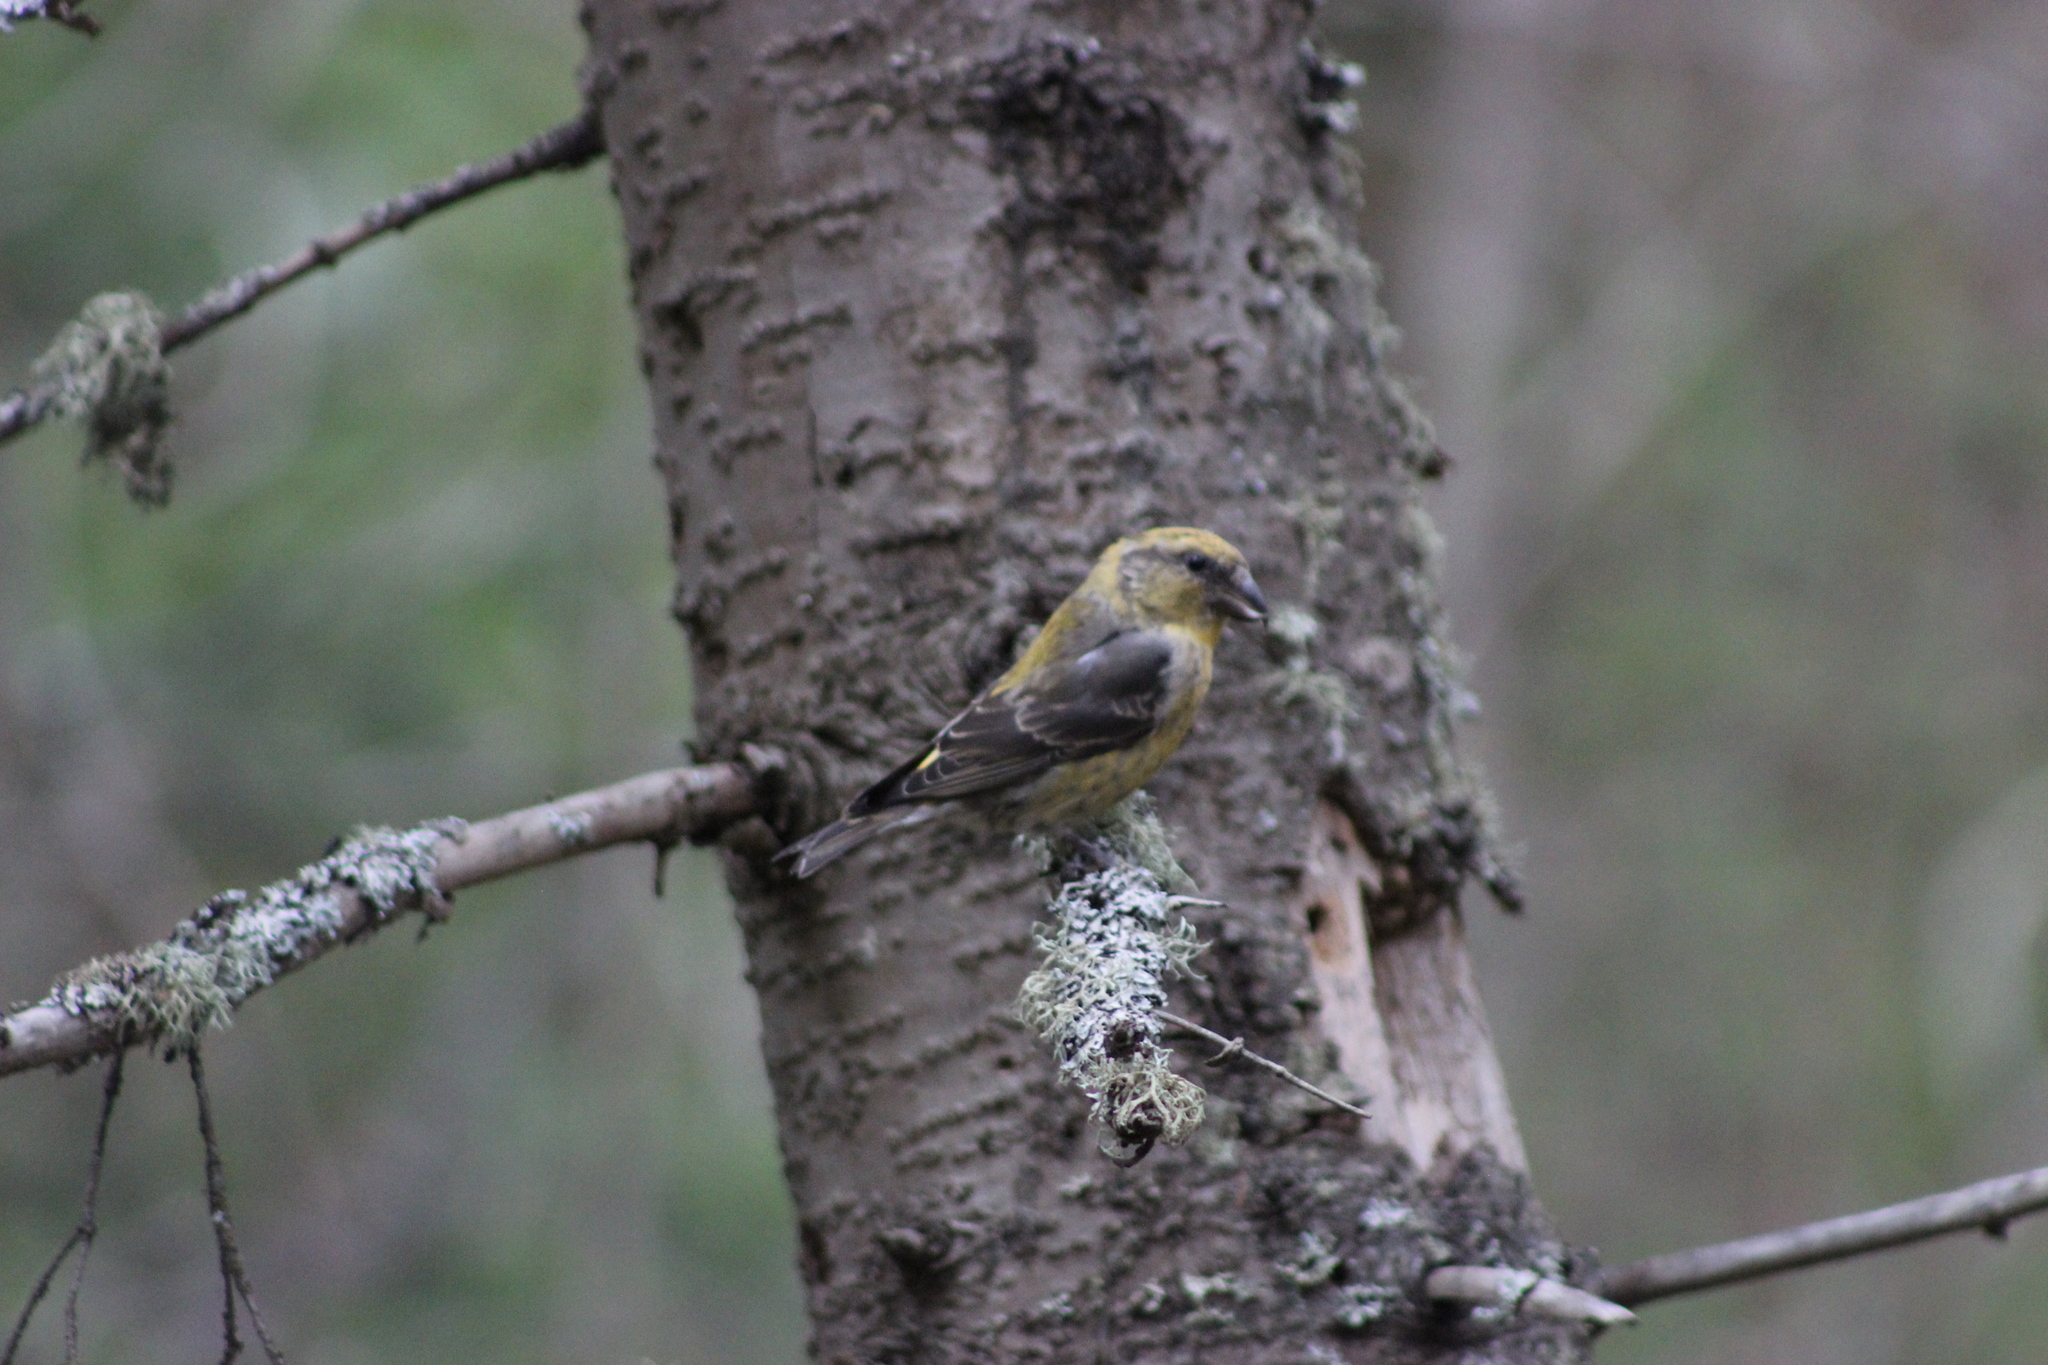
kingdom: Animalia
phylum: Chordata
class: Aves
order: Passeriformes
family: Fringillidae
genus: Loxia
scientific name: Loxia curvirostra
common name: Red crossbill
